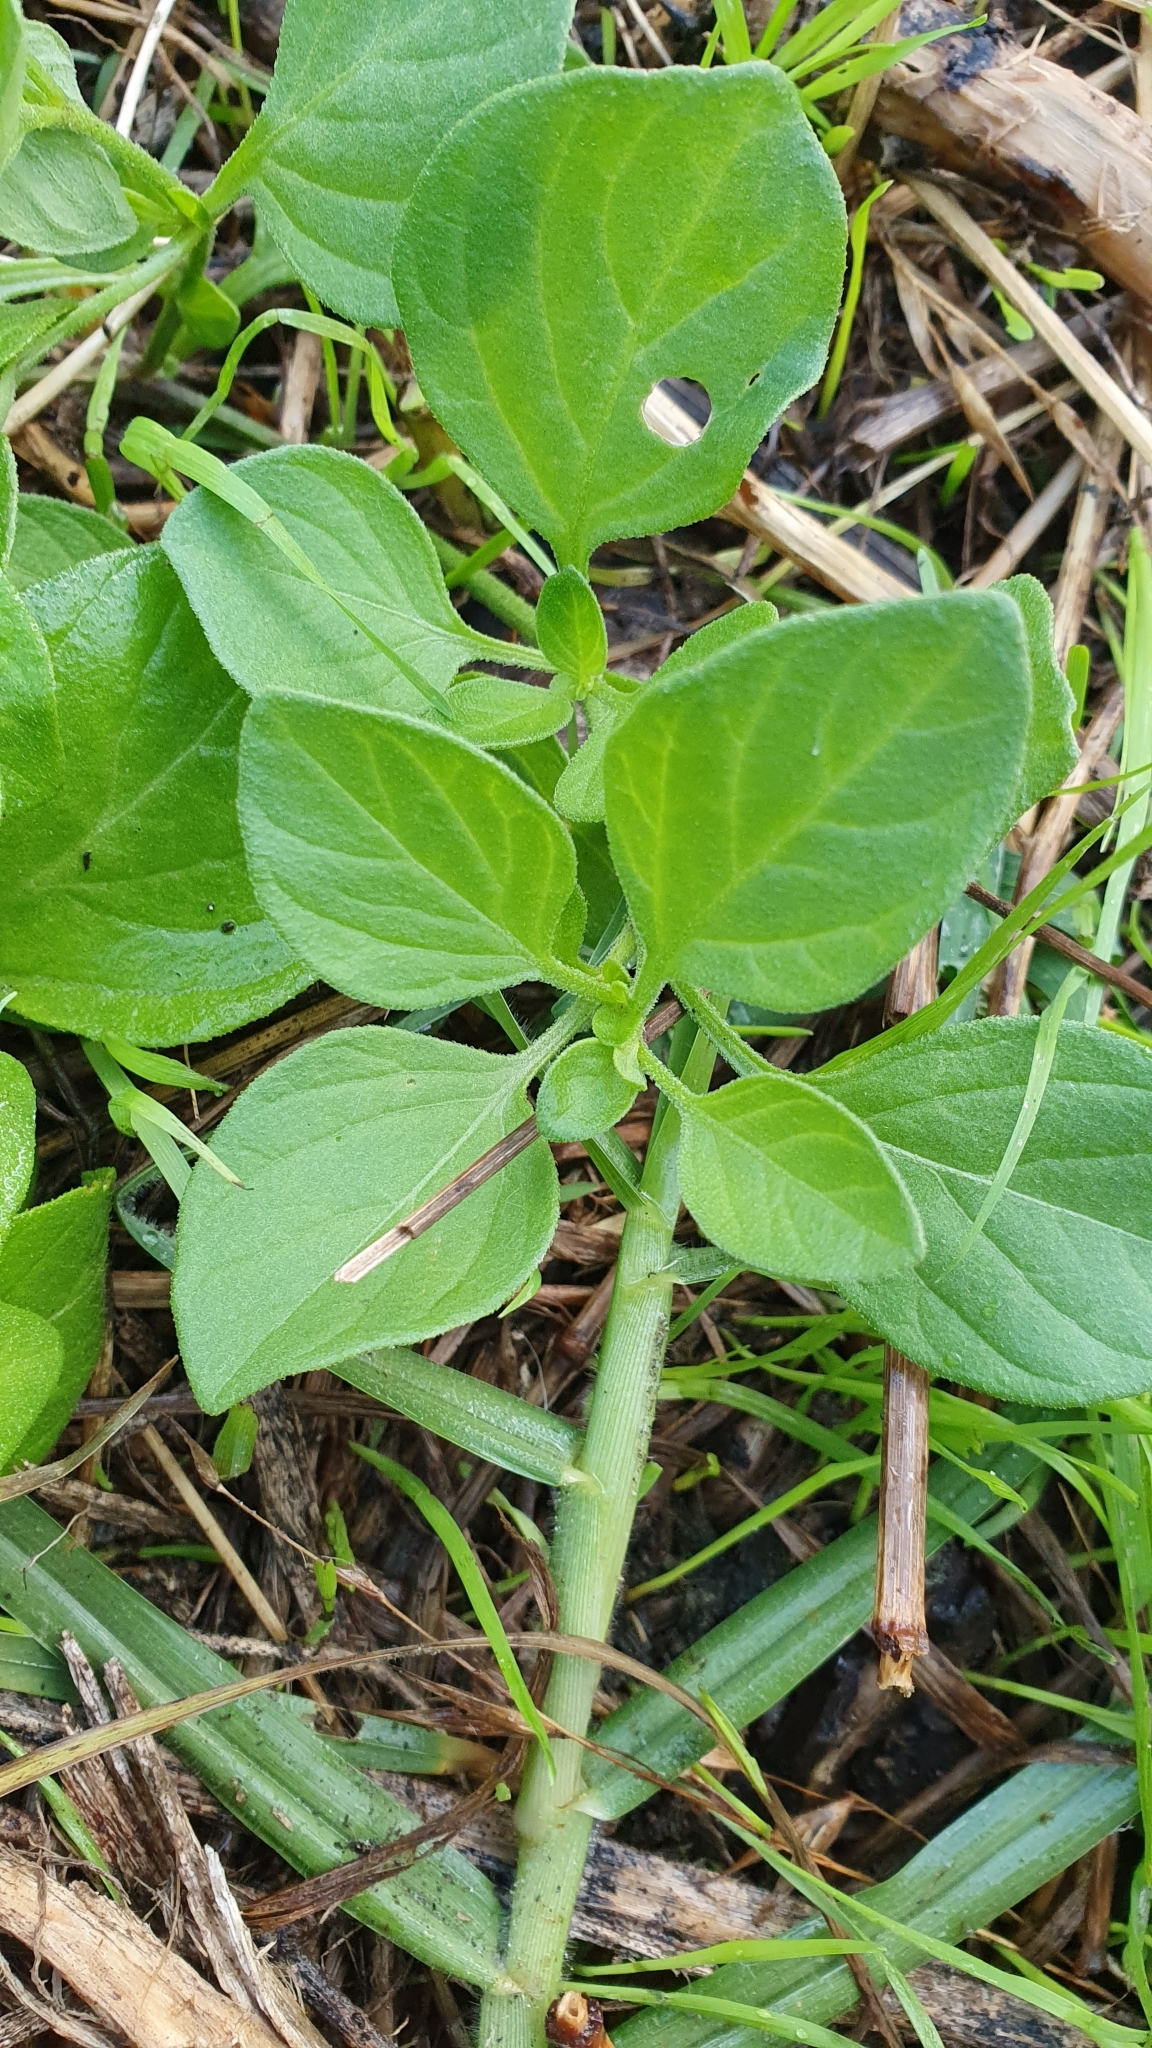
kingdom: Plantae
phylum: Tracheophyta
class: Magnoliopsida
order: Solanales
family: Solanaceae
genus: Salpichroa
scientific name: Salpichroa origanifolia
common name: Lily-of-the-valley-vine
